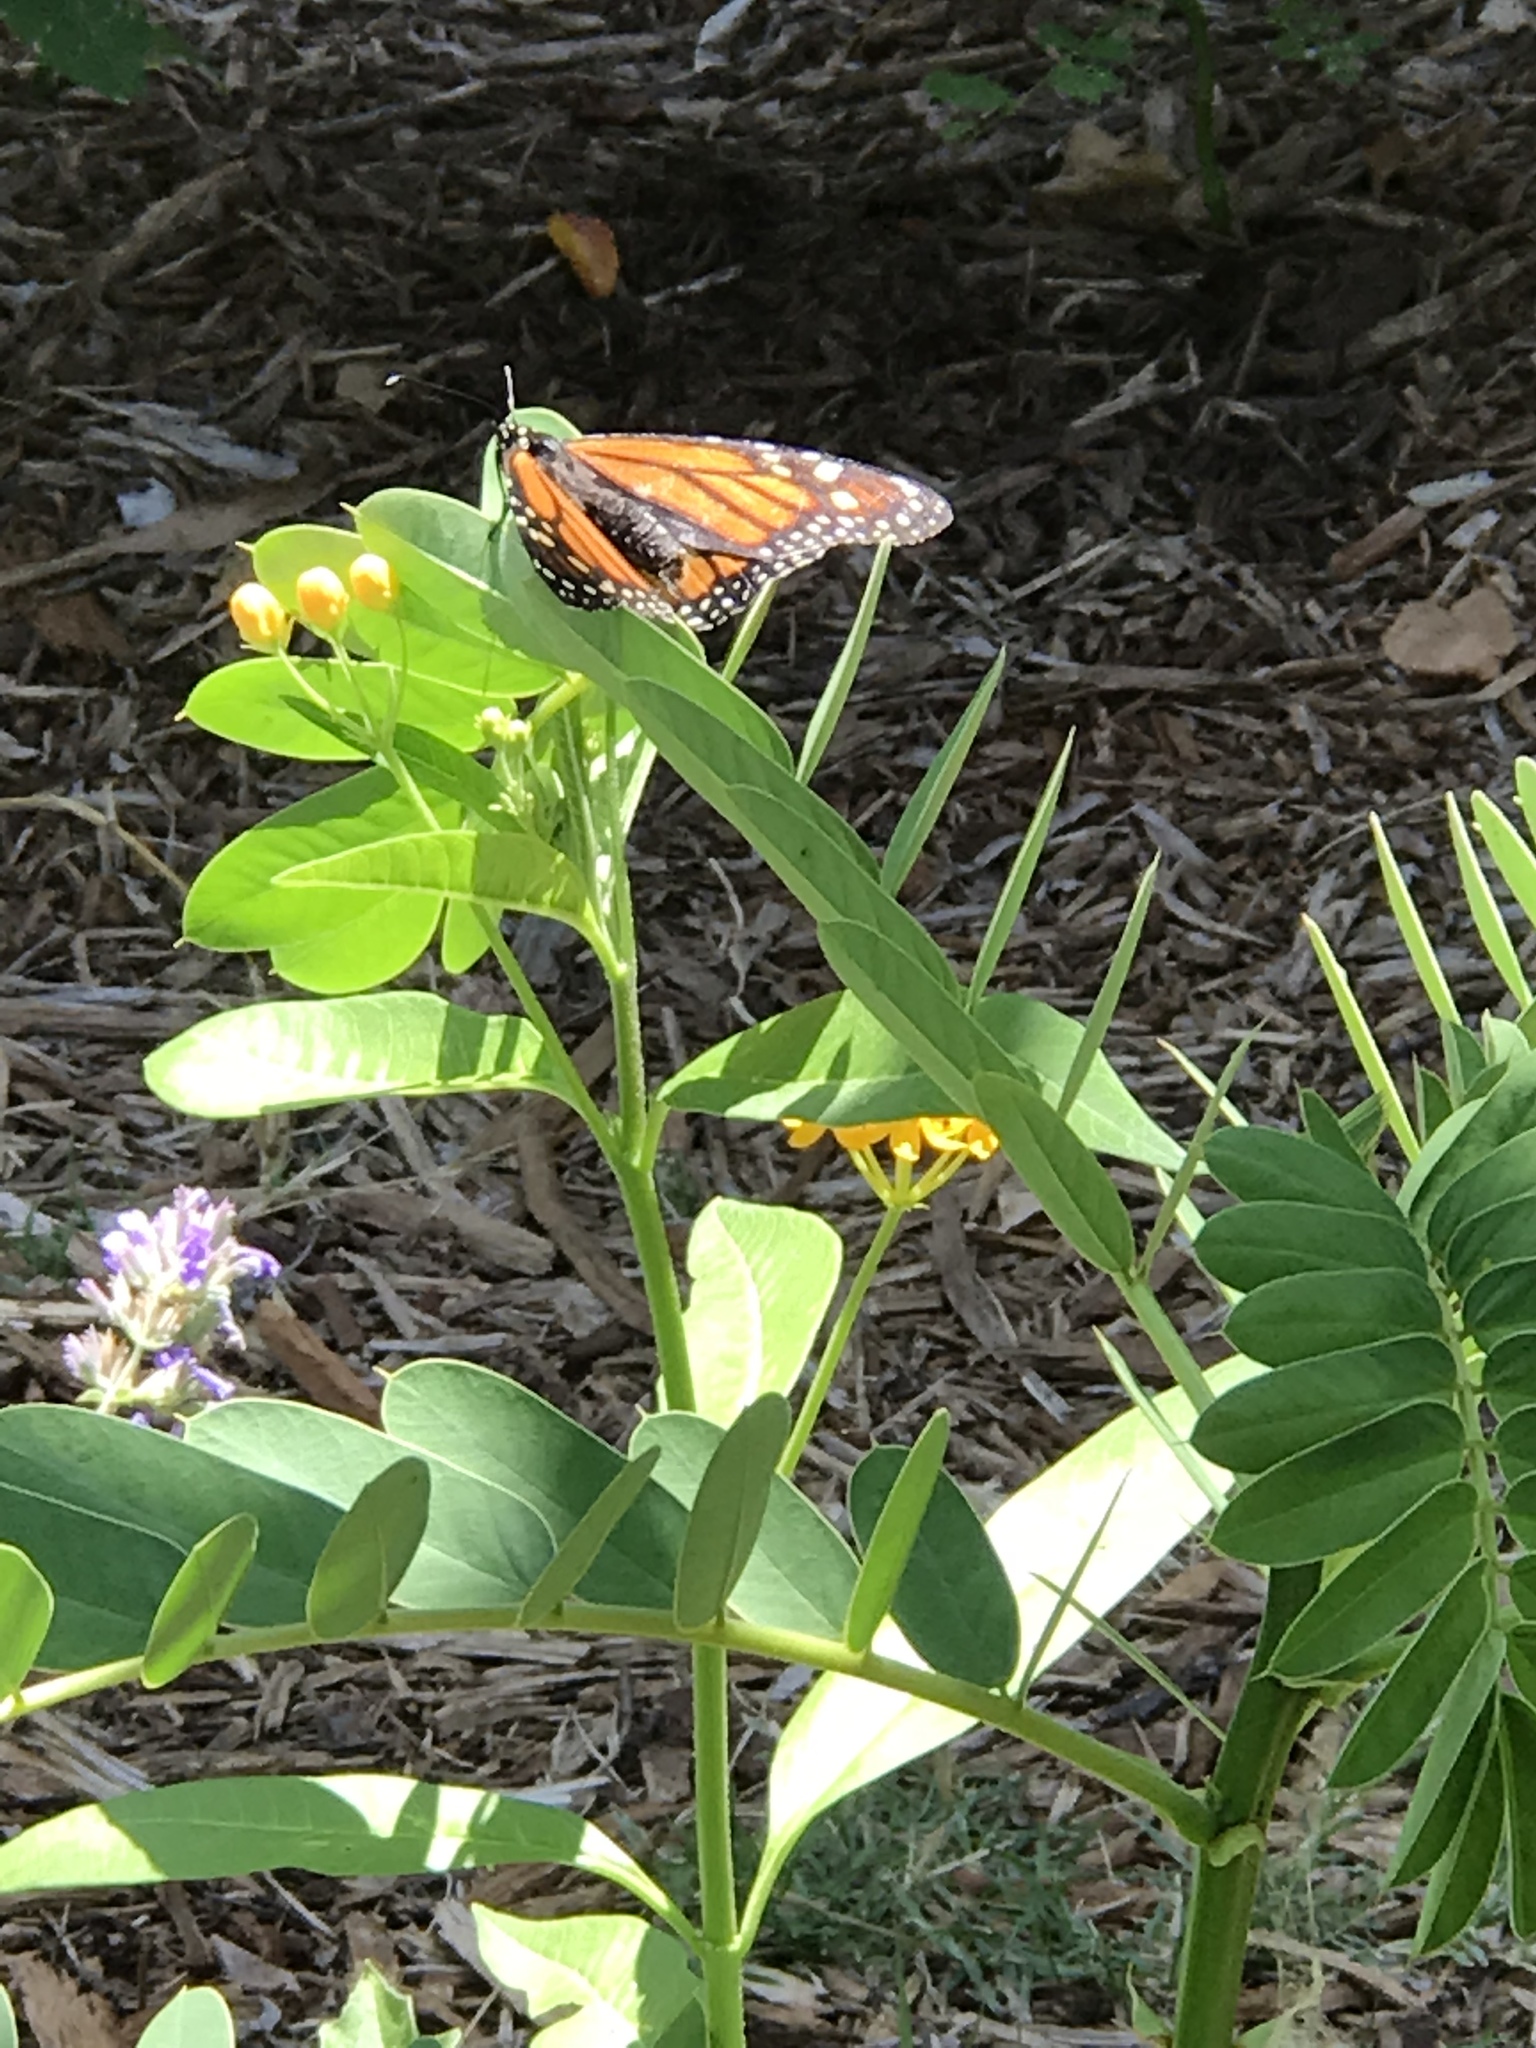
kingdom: Animalia
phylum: Arthropoda
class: Insecta
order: Lepidoptera
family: Nymphalidae
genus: Danaus
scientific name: Danaus plexippus
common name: Monarch
